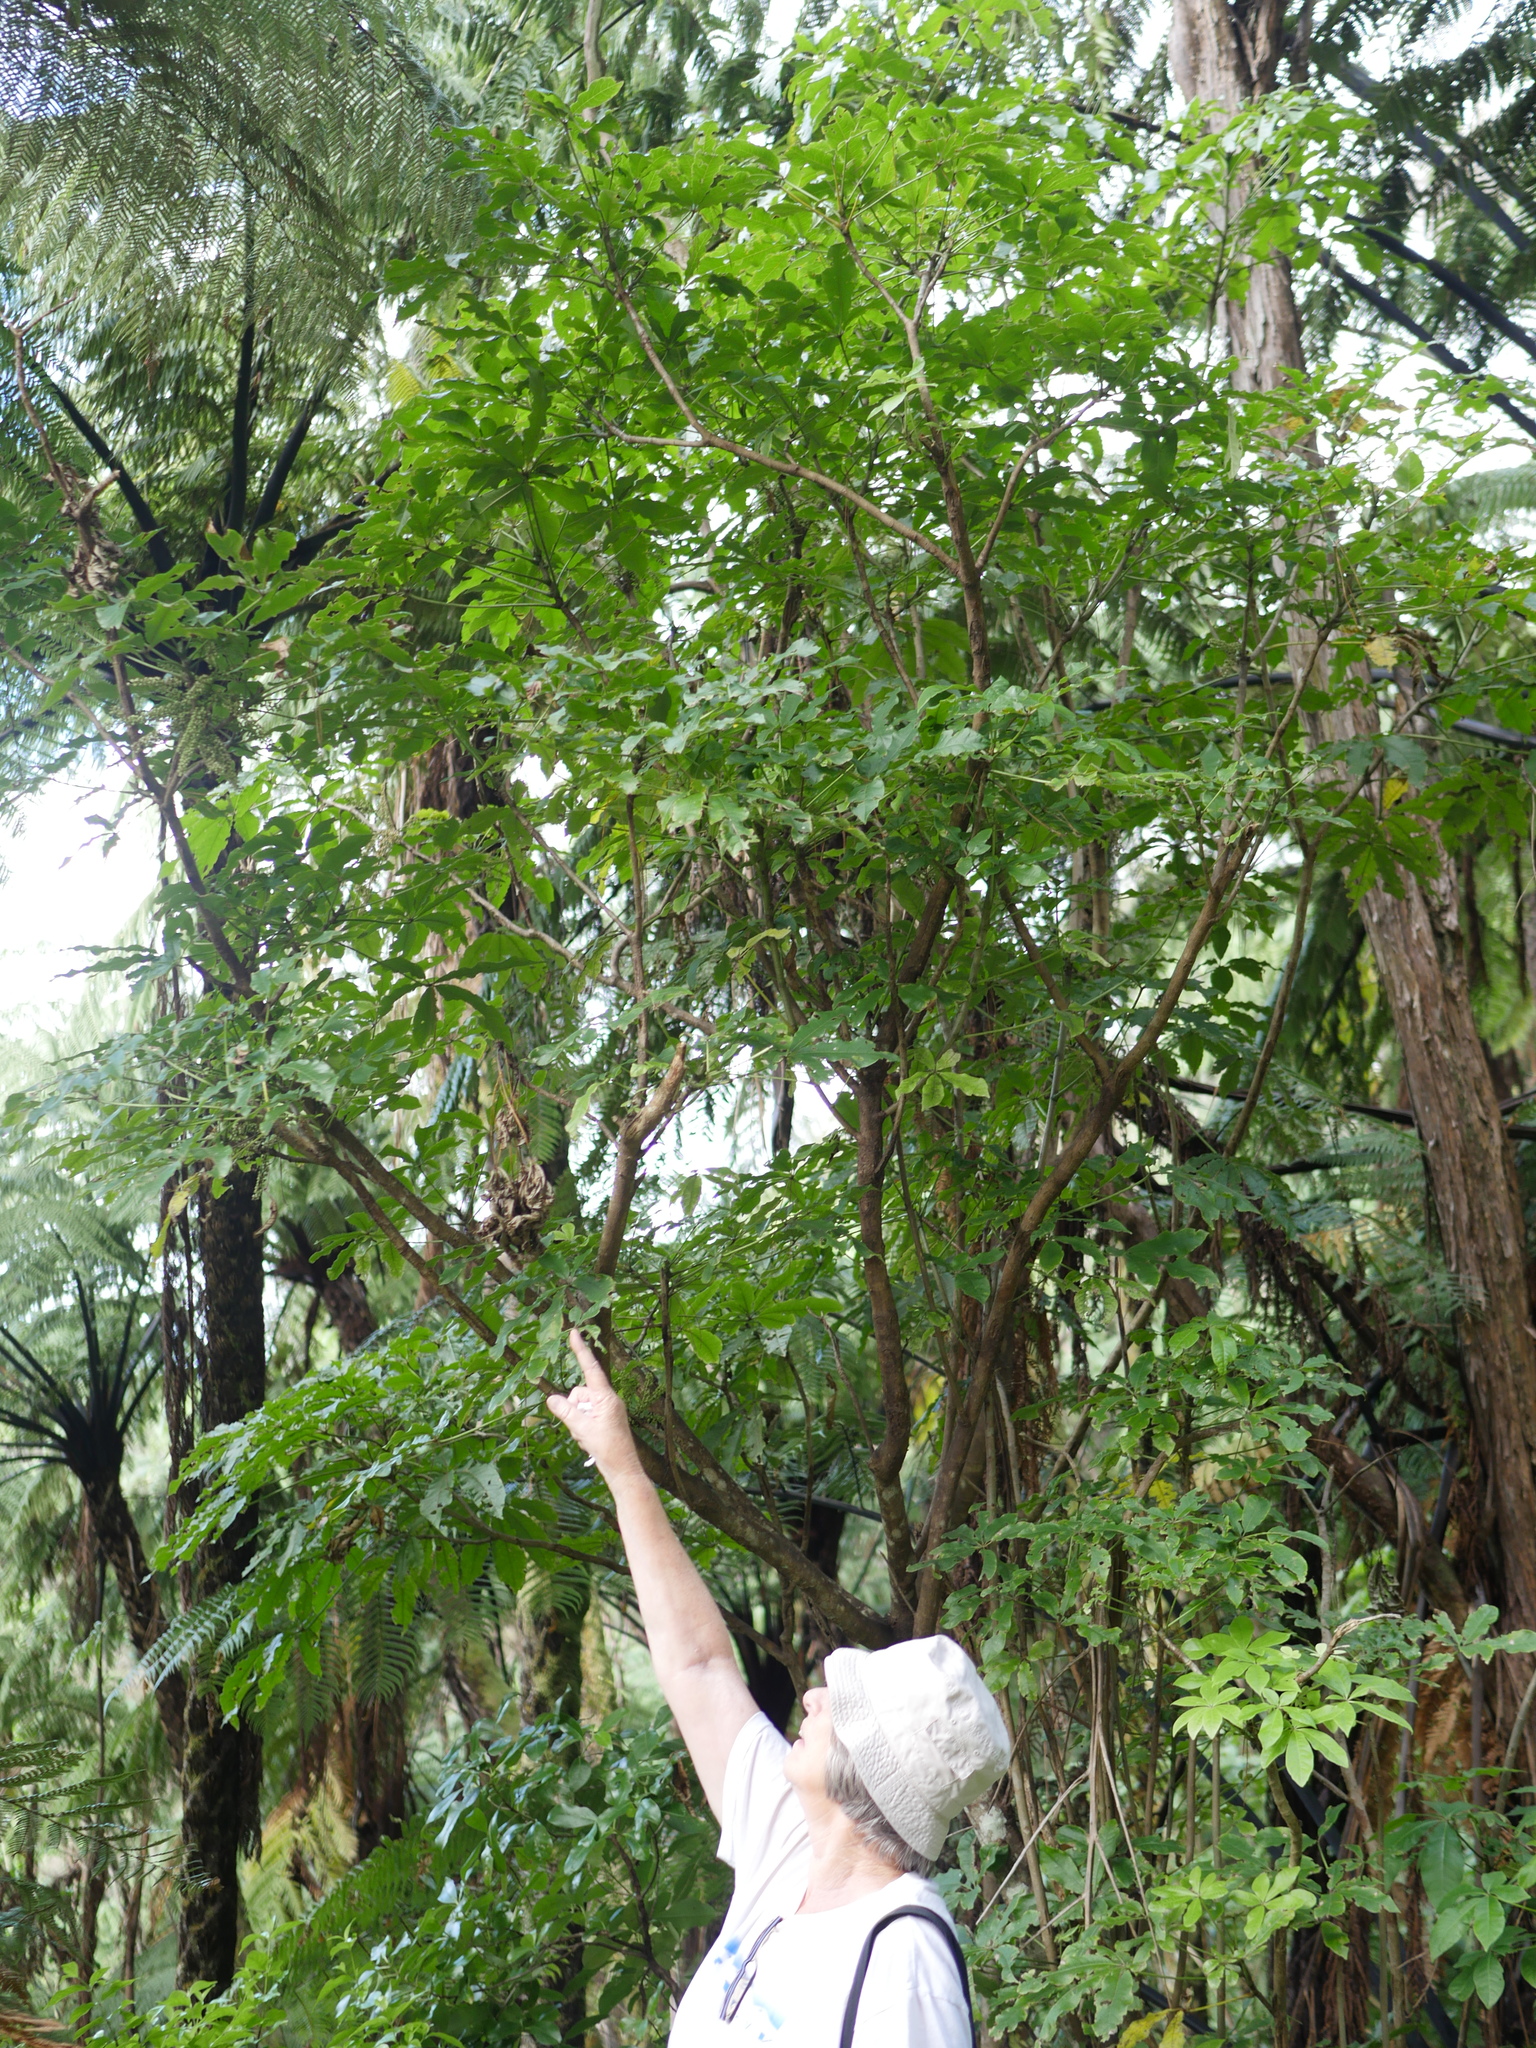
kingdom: Plantae
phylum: Tracheophyta
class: Magnoliopsida
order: Apiales
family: Araliaceae
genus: Schefflera
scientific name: Schefflera digitata
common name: Pate
